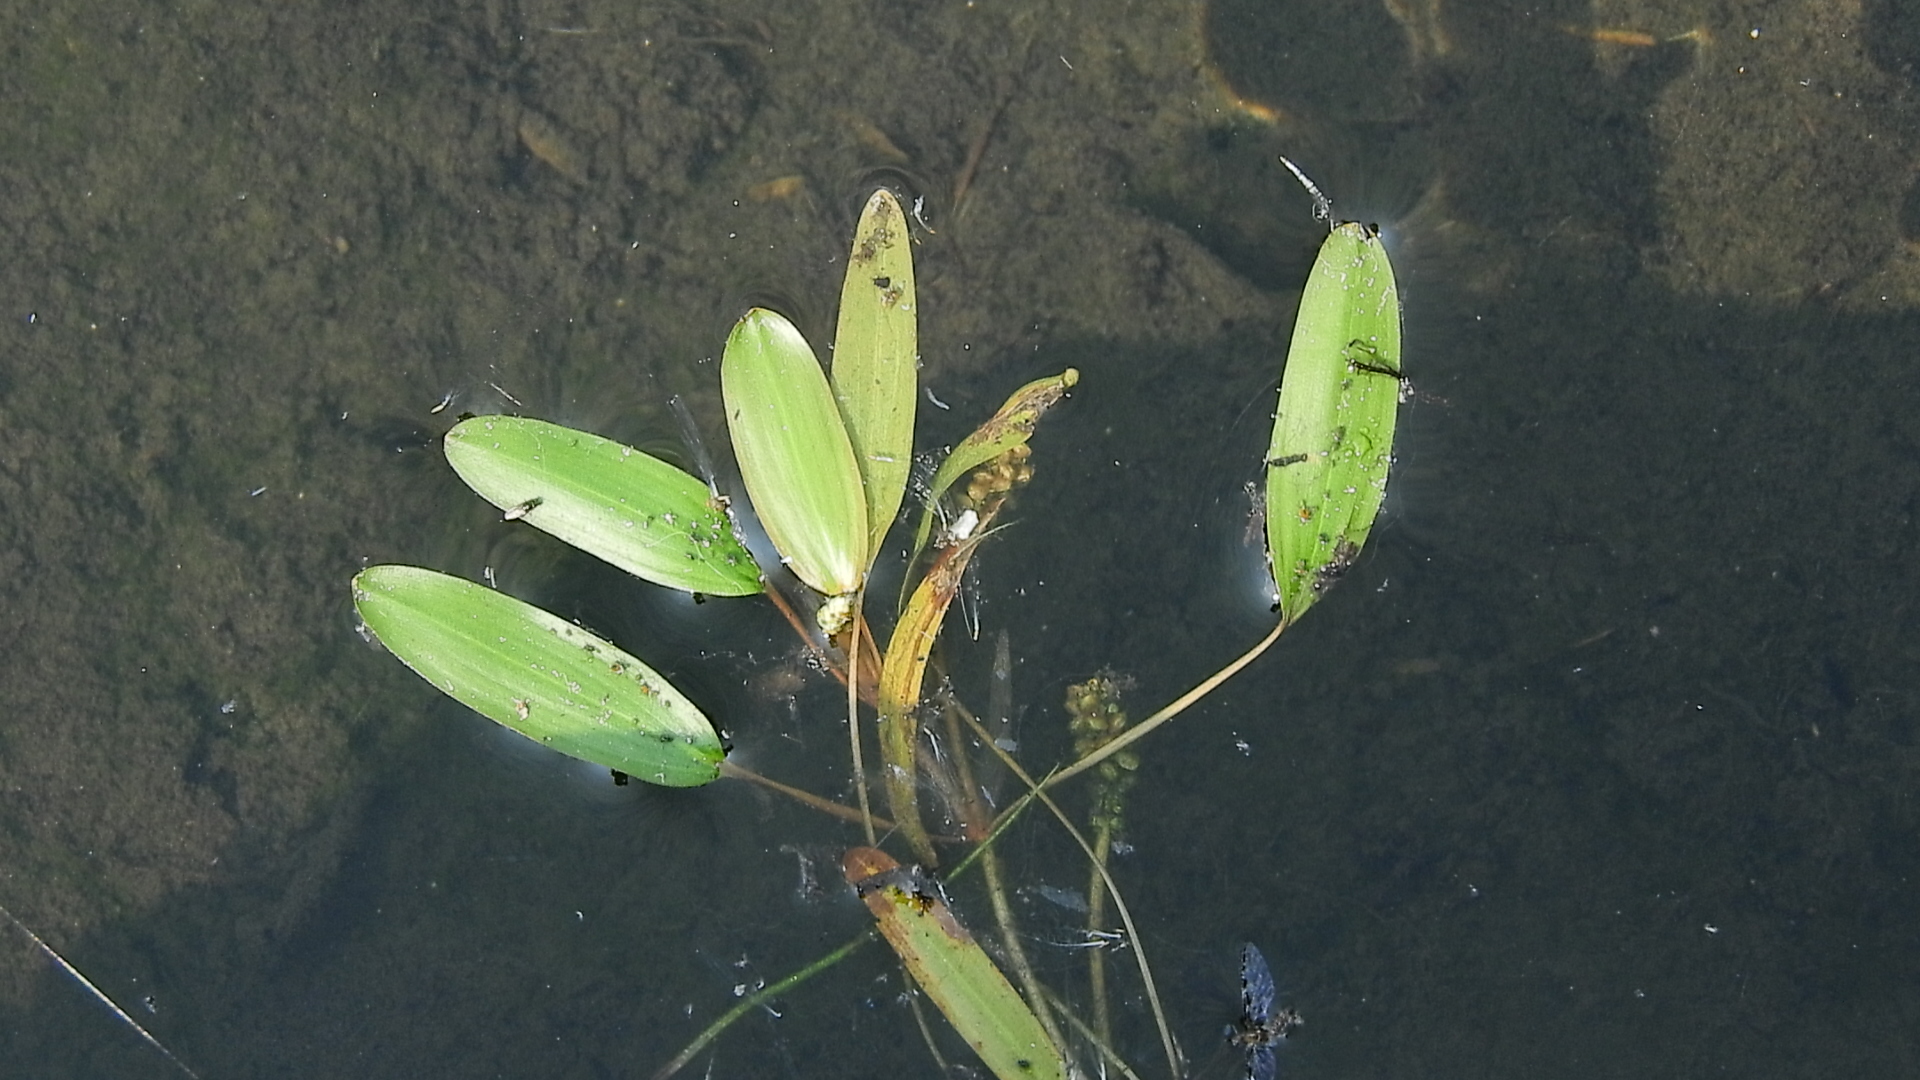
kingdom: Plantae
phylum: Tracheophyta
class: Liliopsida
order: Alismatales
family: Potamogetonaceae
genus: Potamogeton
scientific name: Potamogeton nodosus
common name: Loddon pondweed
